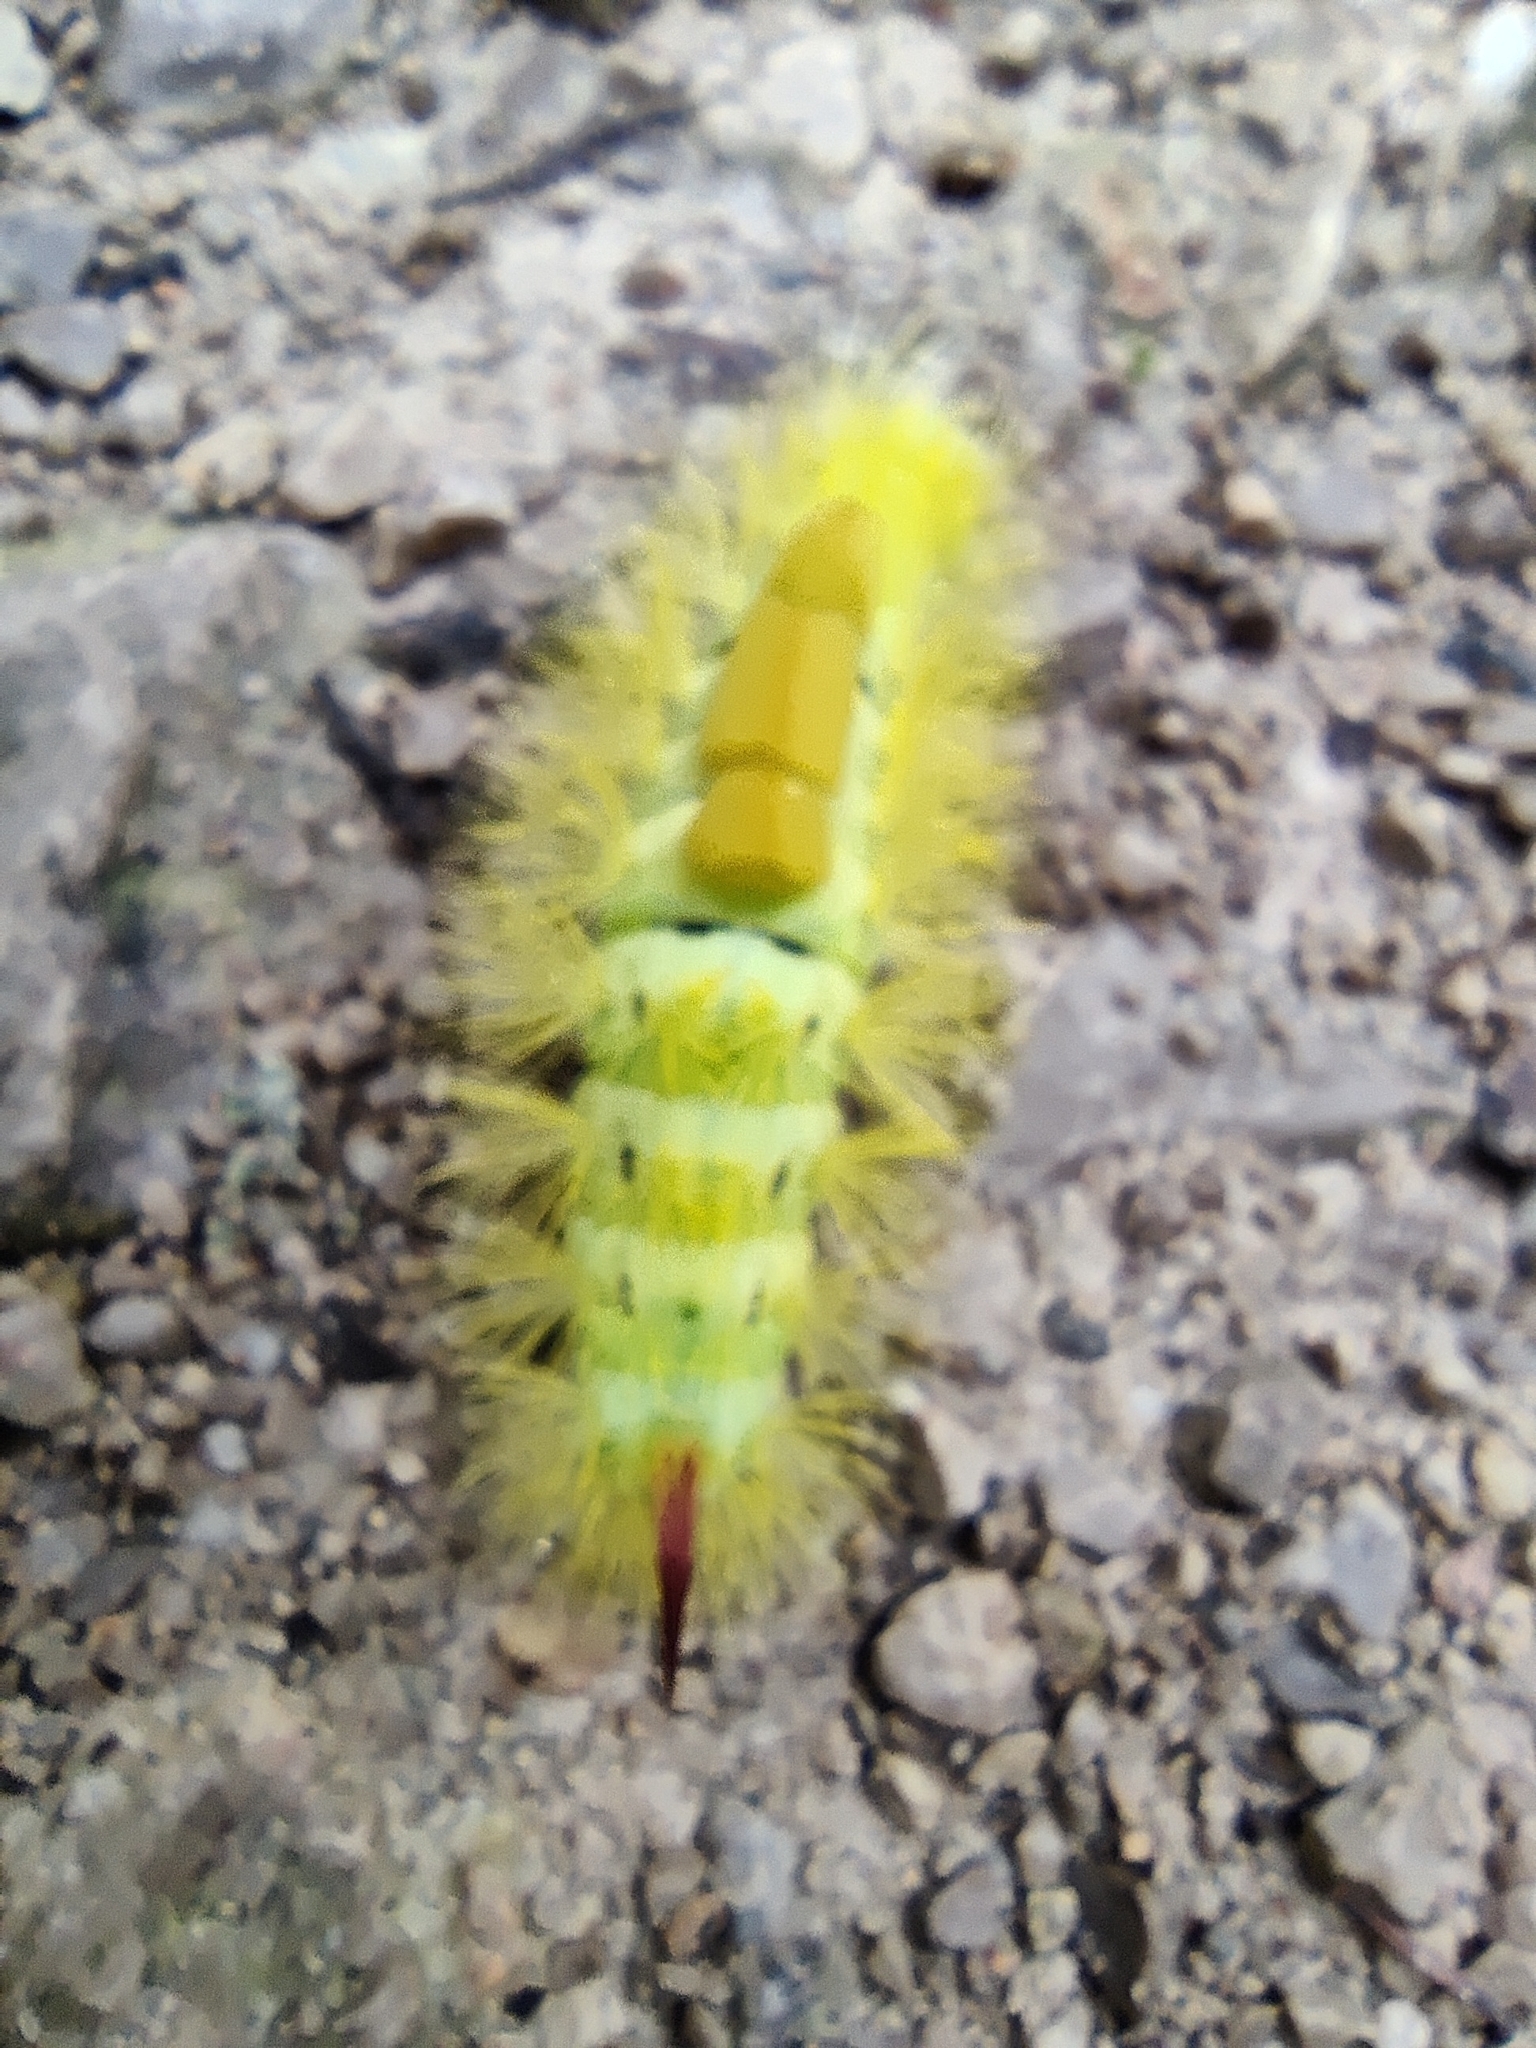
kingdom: Animalia
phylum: Arthropoda
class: Insecta
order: Lepidoptera
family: Erebidae
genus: Calliteara
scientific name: Calliteara pudibunda
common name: Pale tussock
